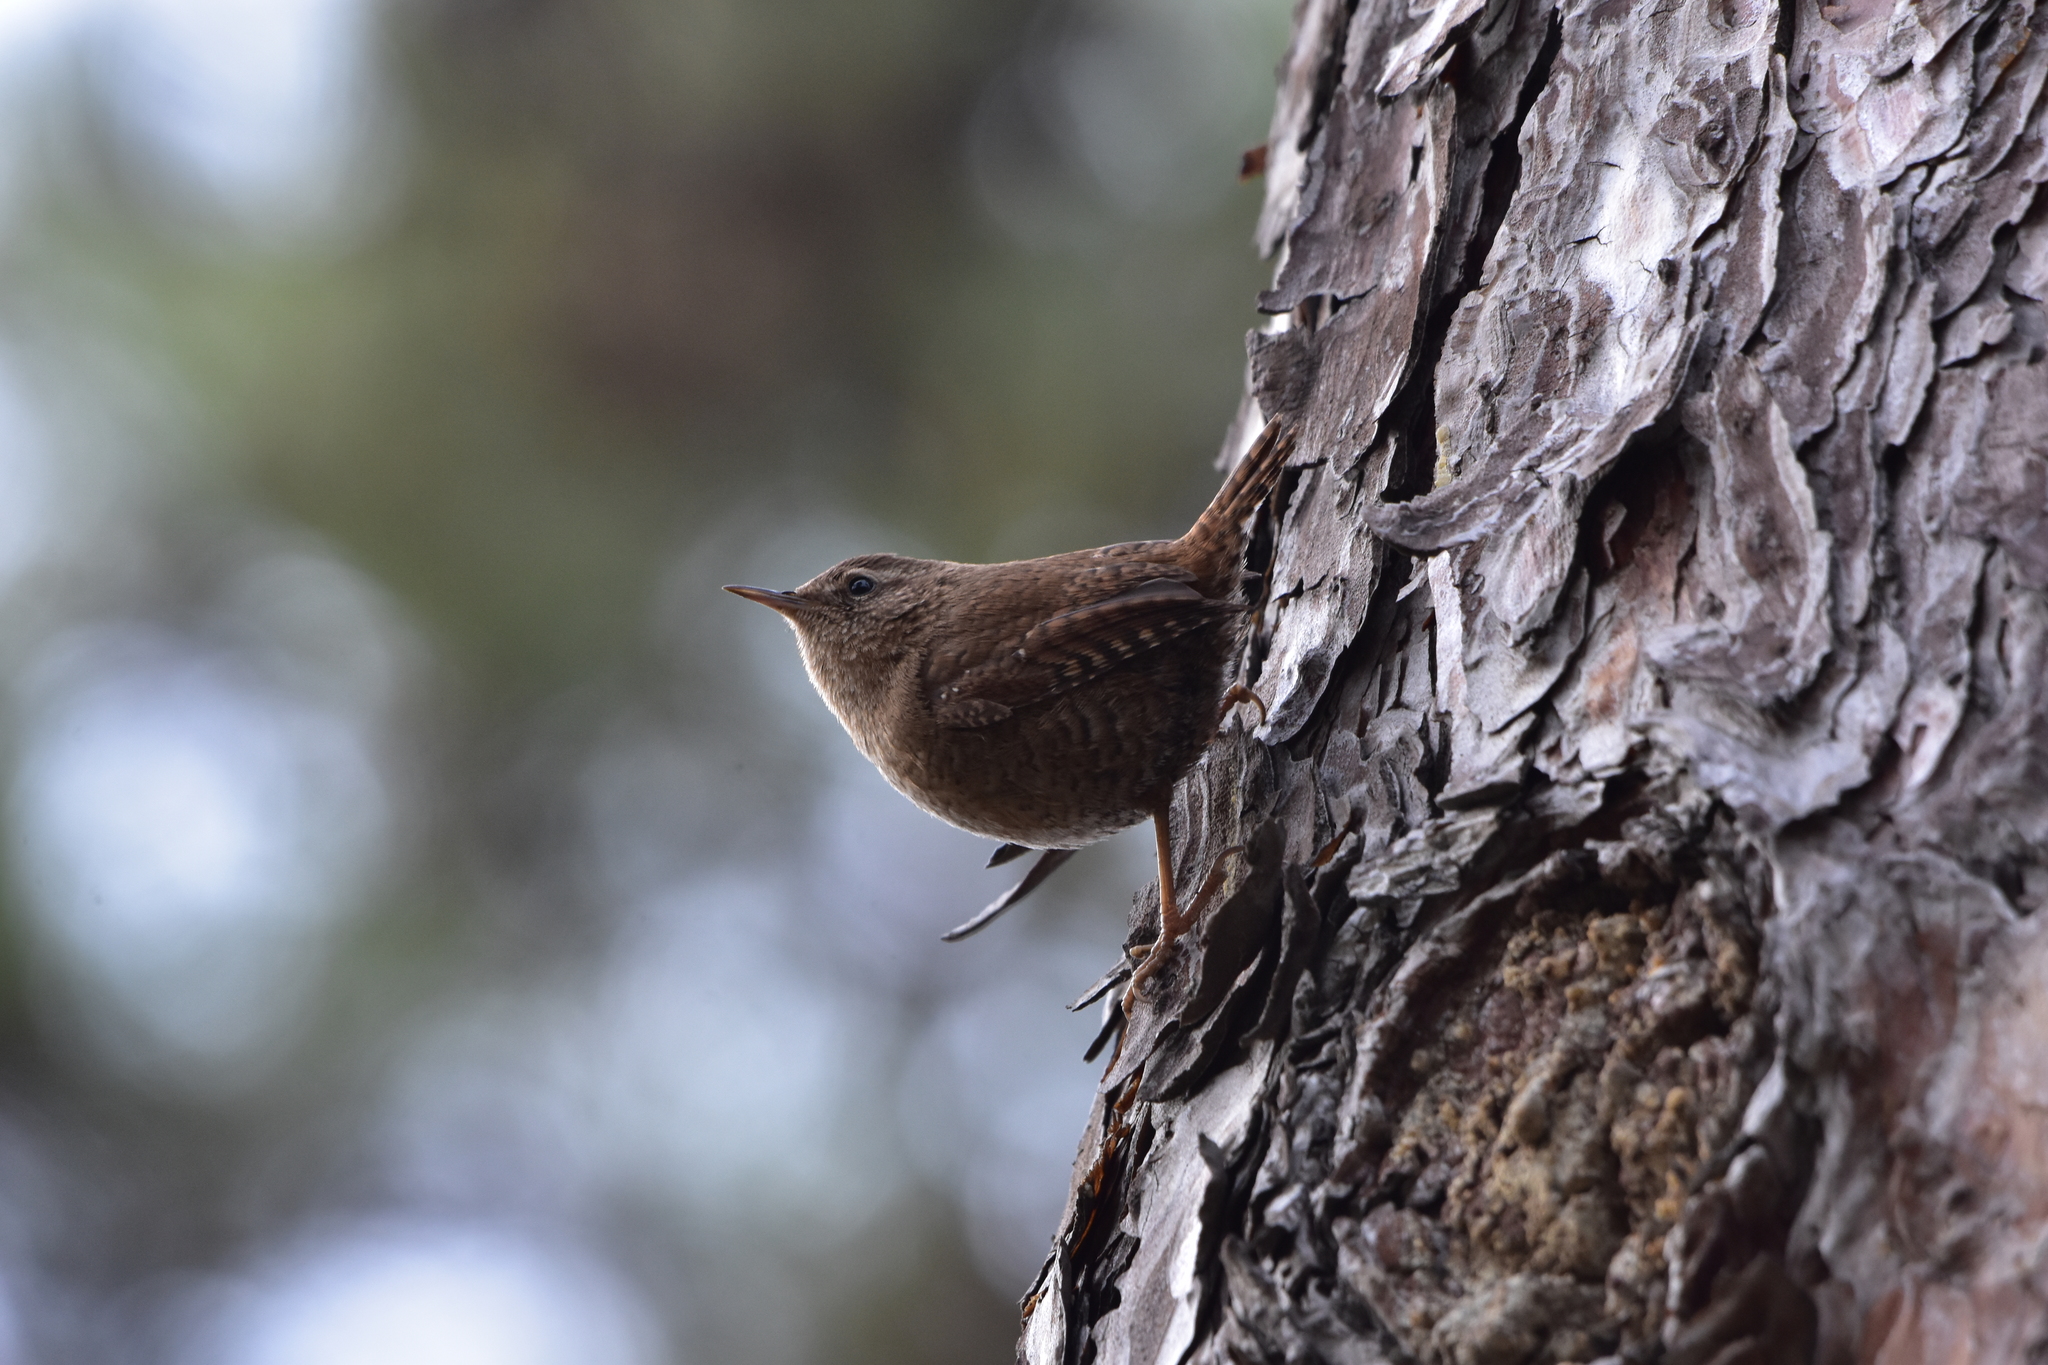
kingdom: Animalia
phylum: Chordata
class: Aves
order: Passeriformes
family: Troglodytidae
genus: Troglodytes
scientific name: Troglodytes troglodytes
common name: Eurasian wren
